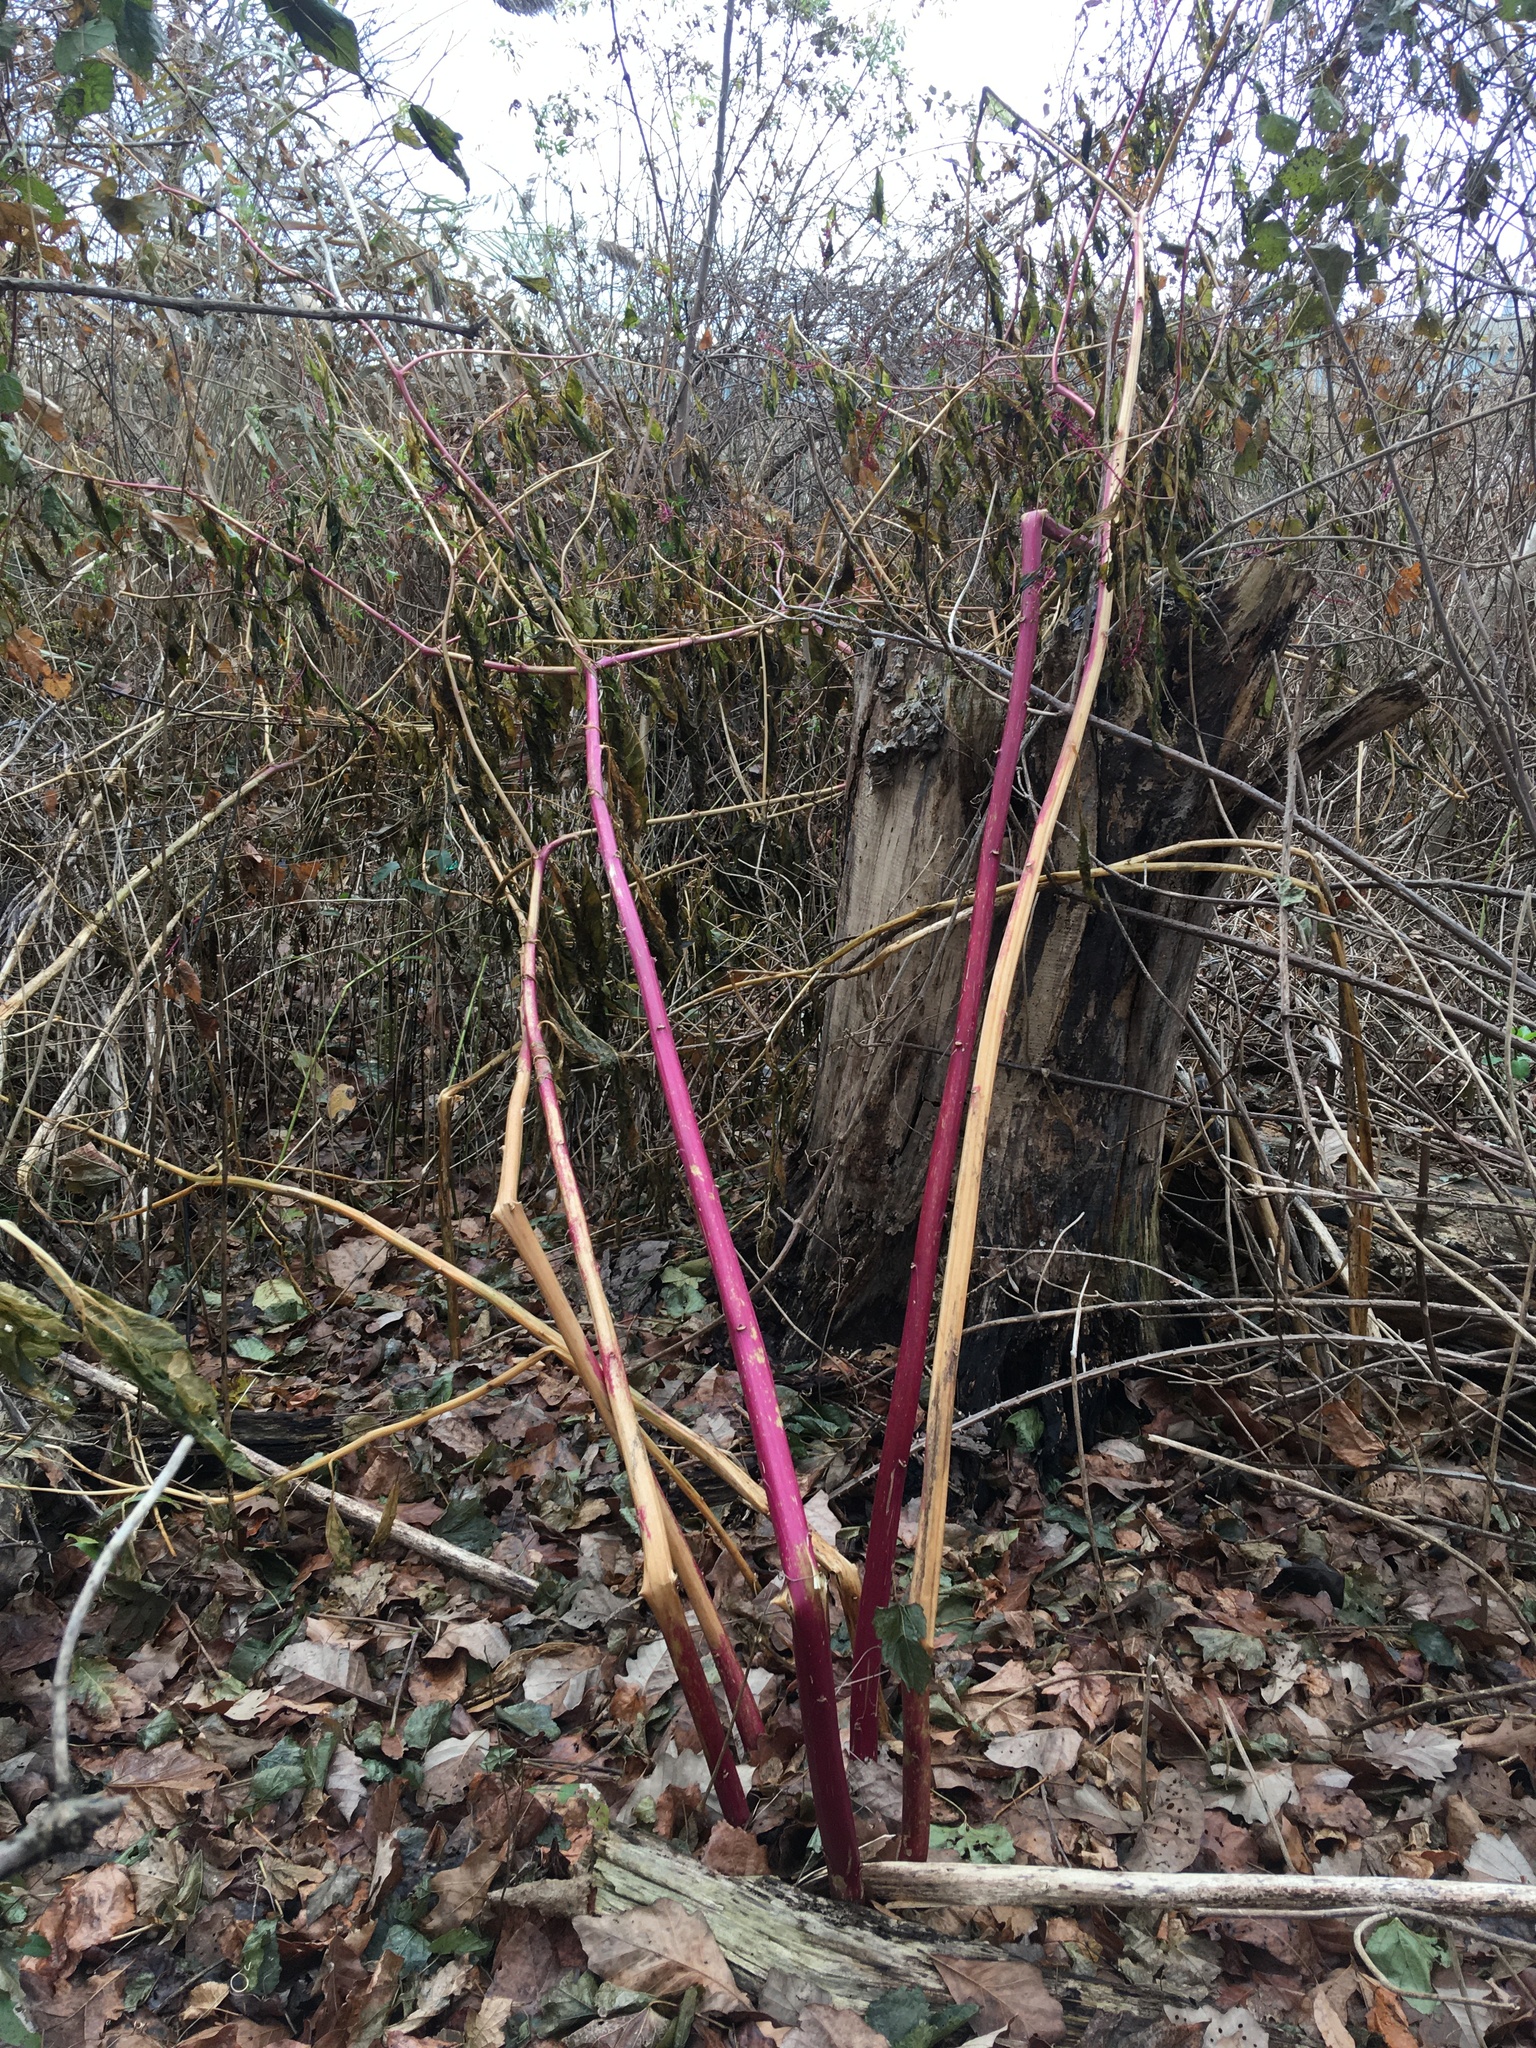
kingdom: Plantae
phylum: Tracheophyta
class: Magnoliopsida
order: Caryophyllales
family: Phytolaccaceae
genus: Phytolacca
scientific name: Phytolacca americana
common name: American pokeweed
